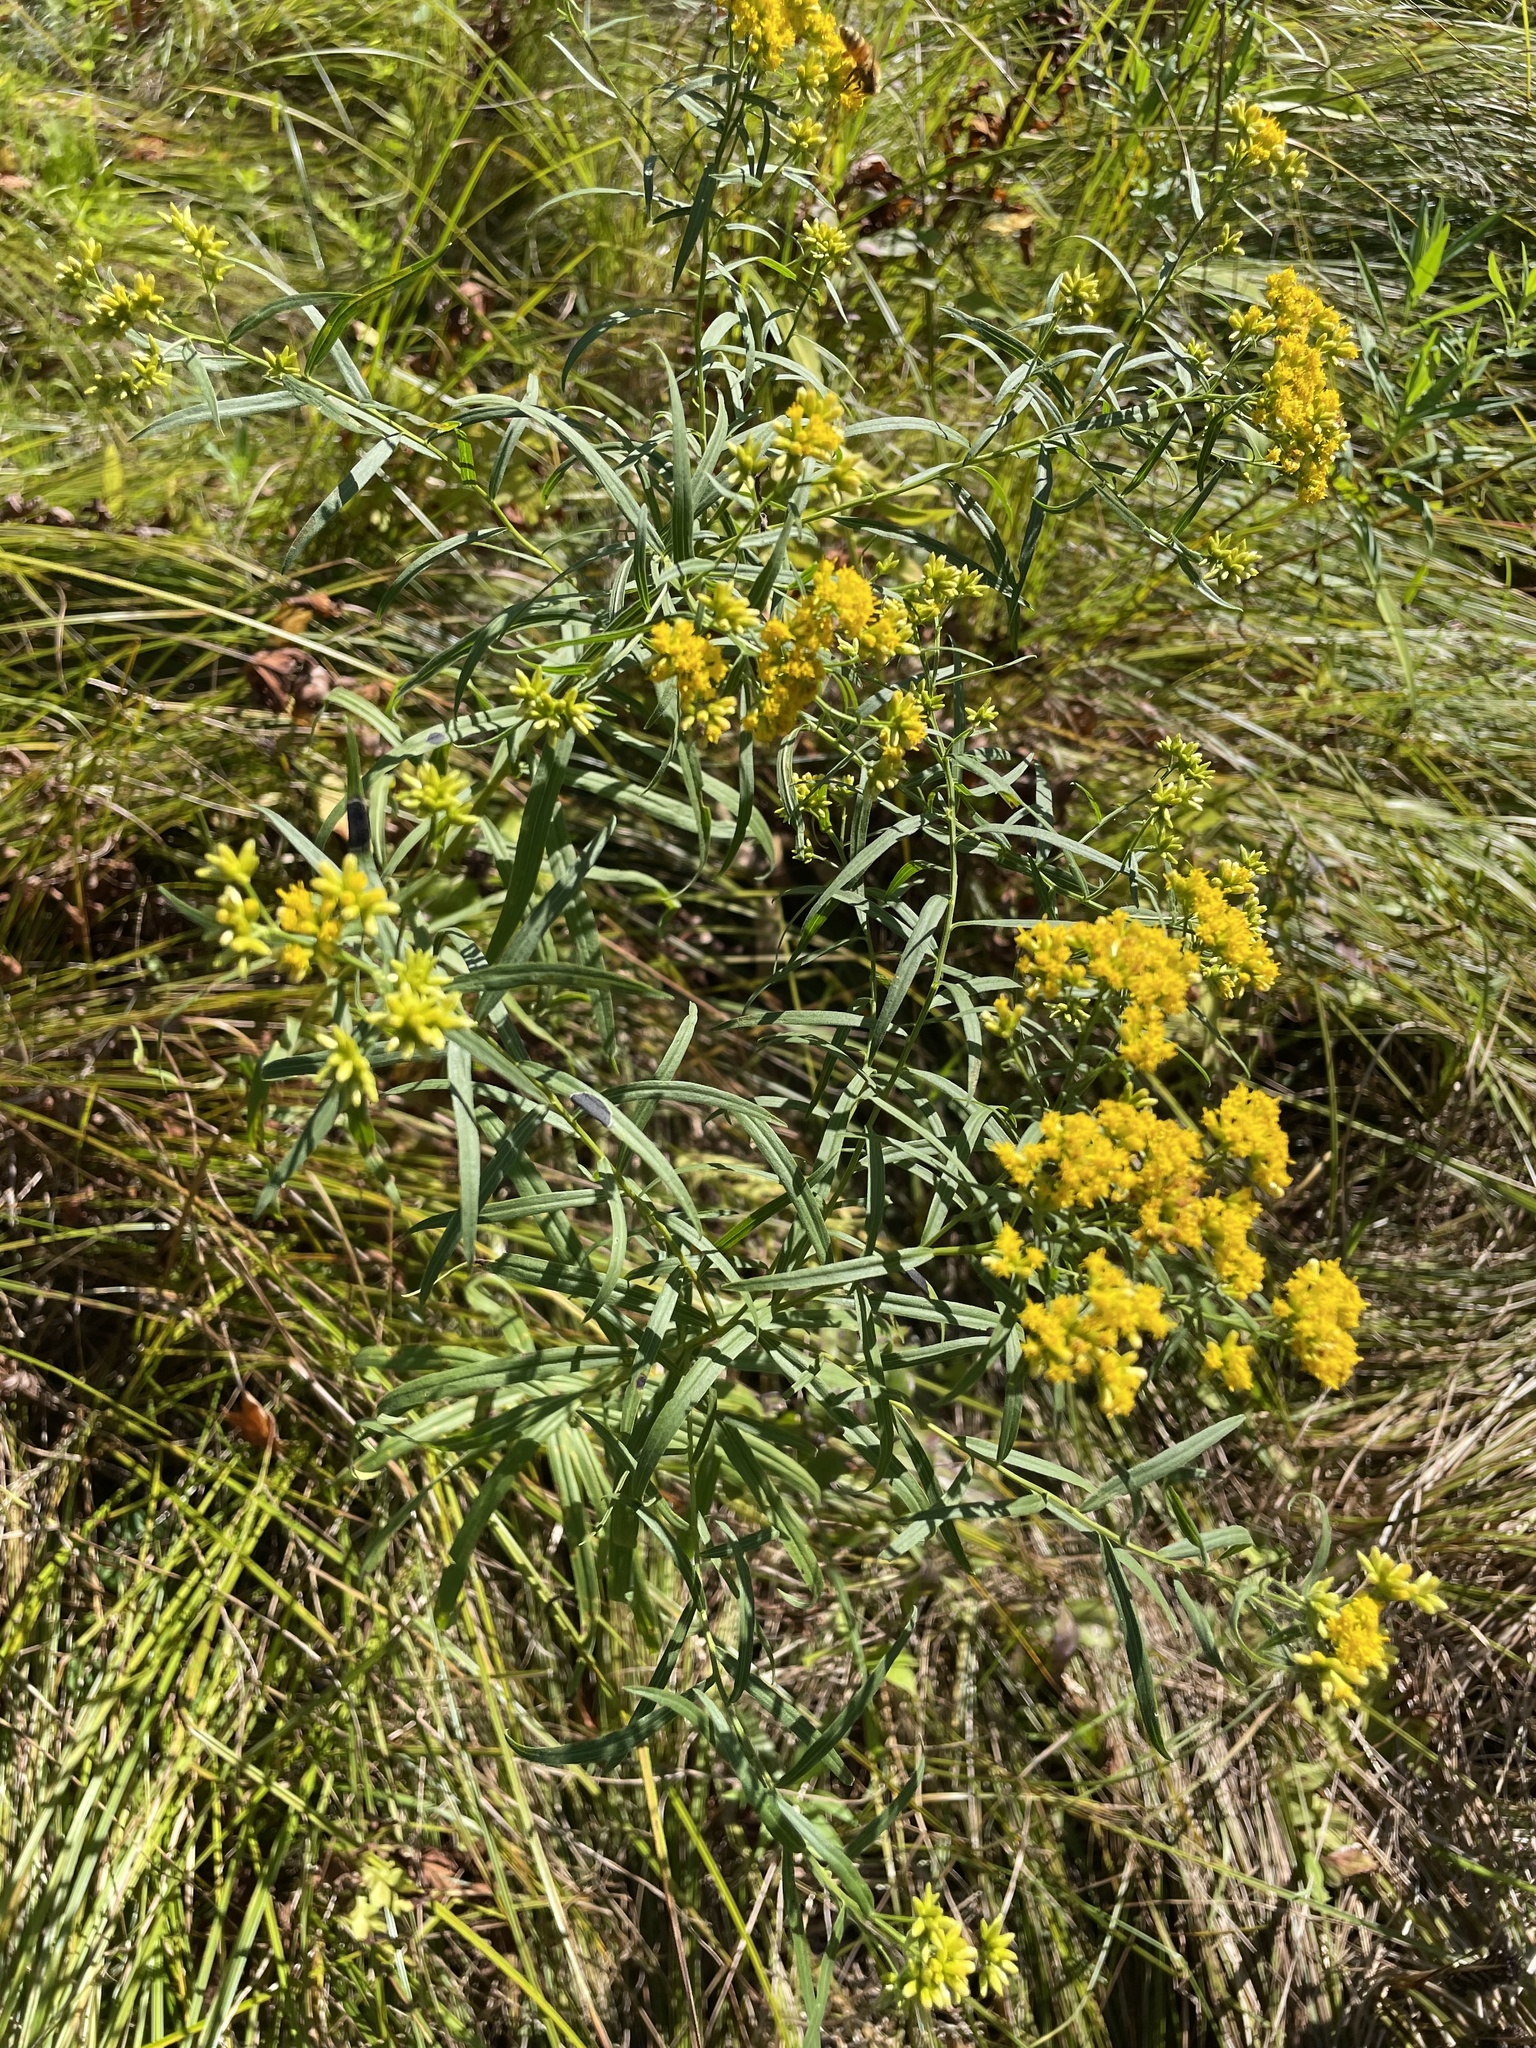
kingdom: Plantae
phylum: Tracheophyta
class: Magnoliopsida
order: Asterales
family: Asteraceae
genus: Euthamia
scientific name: Euthamia graminifolia
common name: Common goldentop
